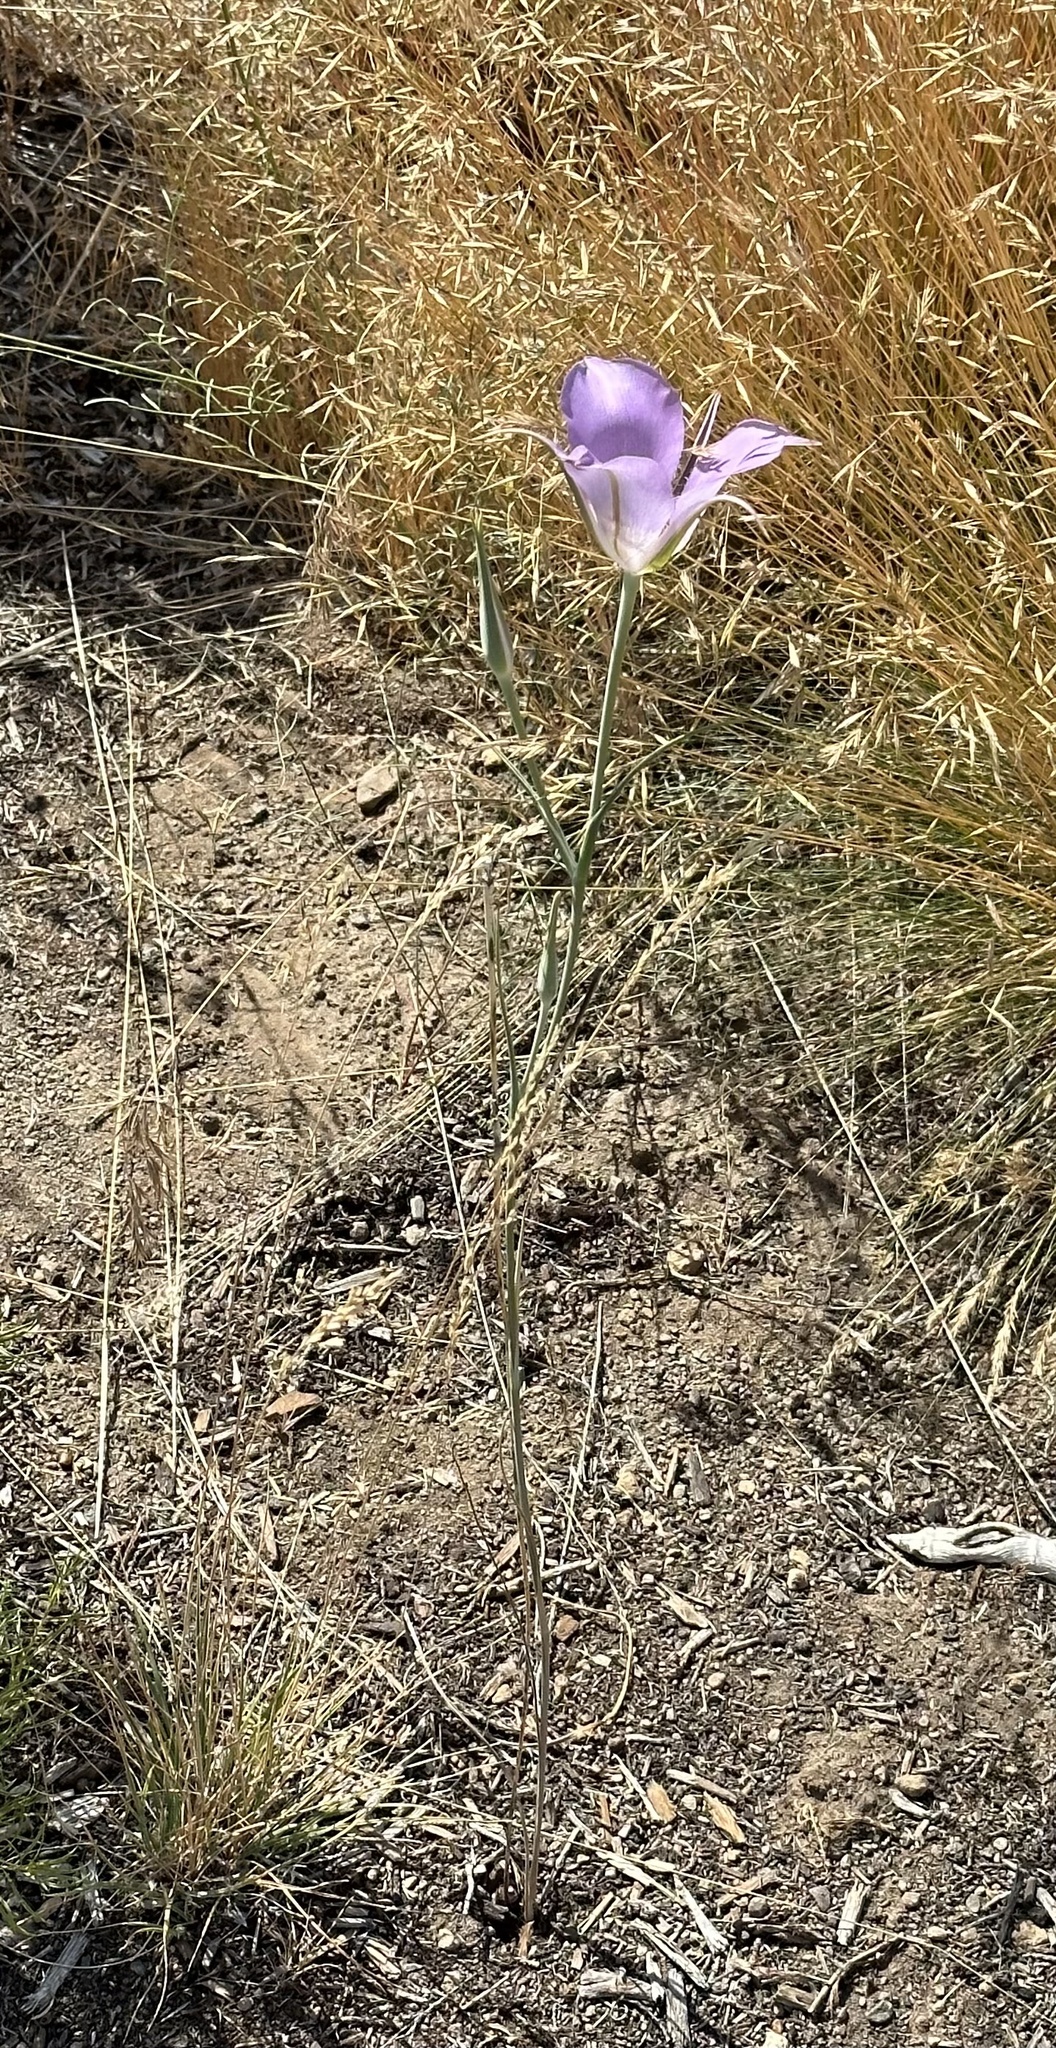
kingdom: Plantae
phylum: Tracheophyta
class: Liliopsida
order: Liliales
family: Liliaceae
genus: Calochortus
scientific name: Calochortus macrocarpus
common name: Green-band mariposa lily
